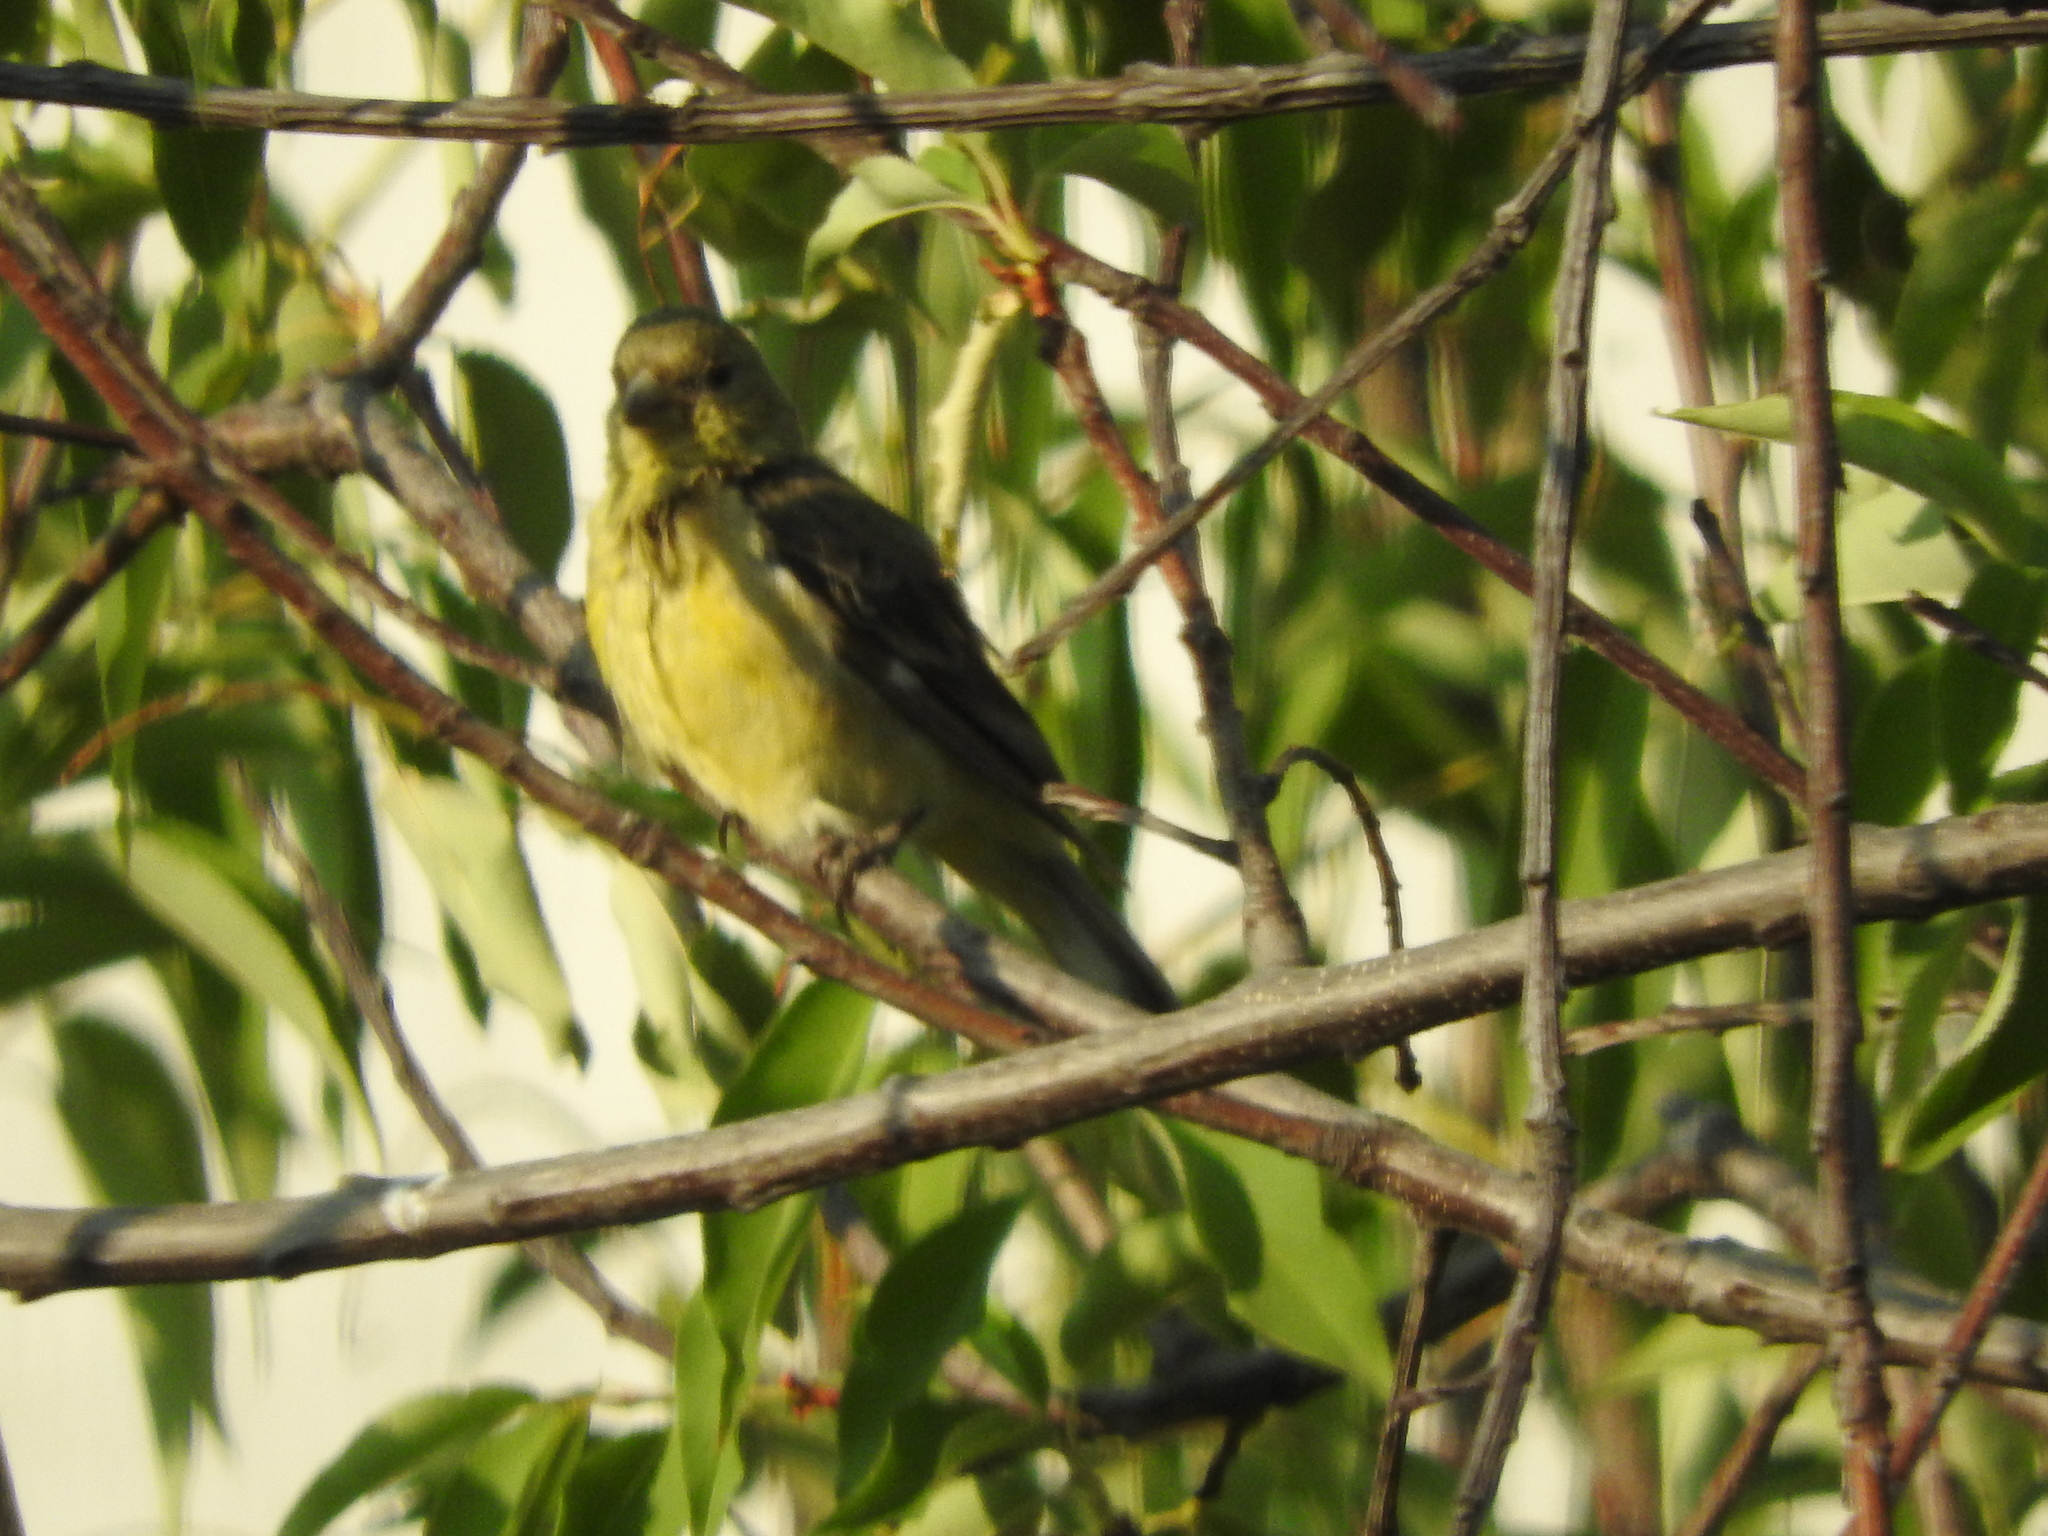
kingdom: Animalia
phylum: Chordata
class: Aves
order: Passeriformes
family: Fringillidae
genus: Spinus
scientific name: Spinus psaltria
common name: Lesser goldfinch
